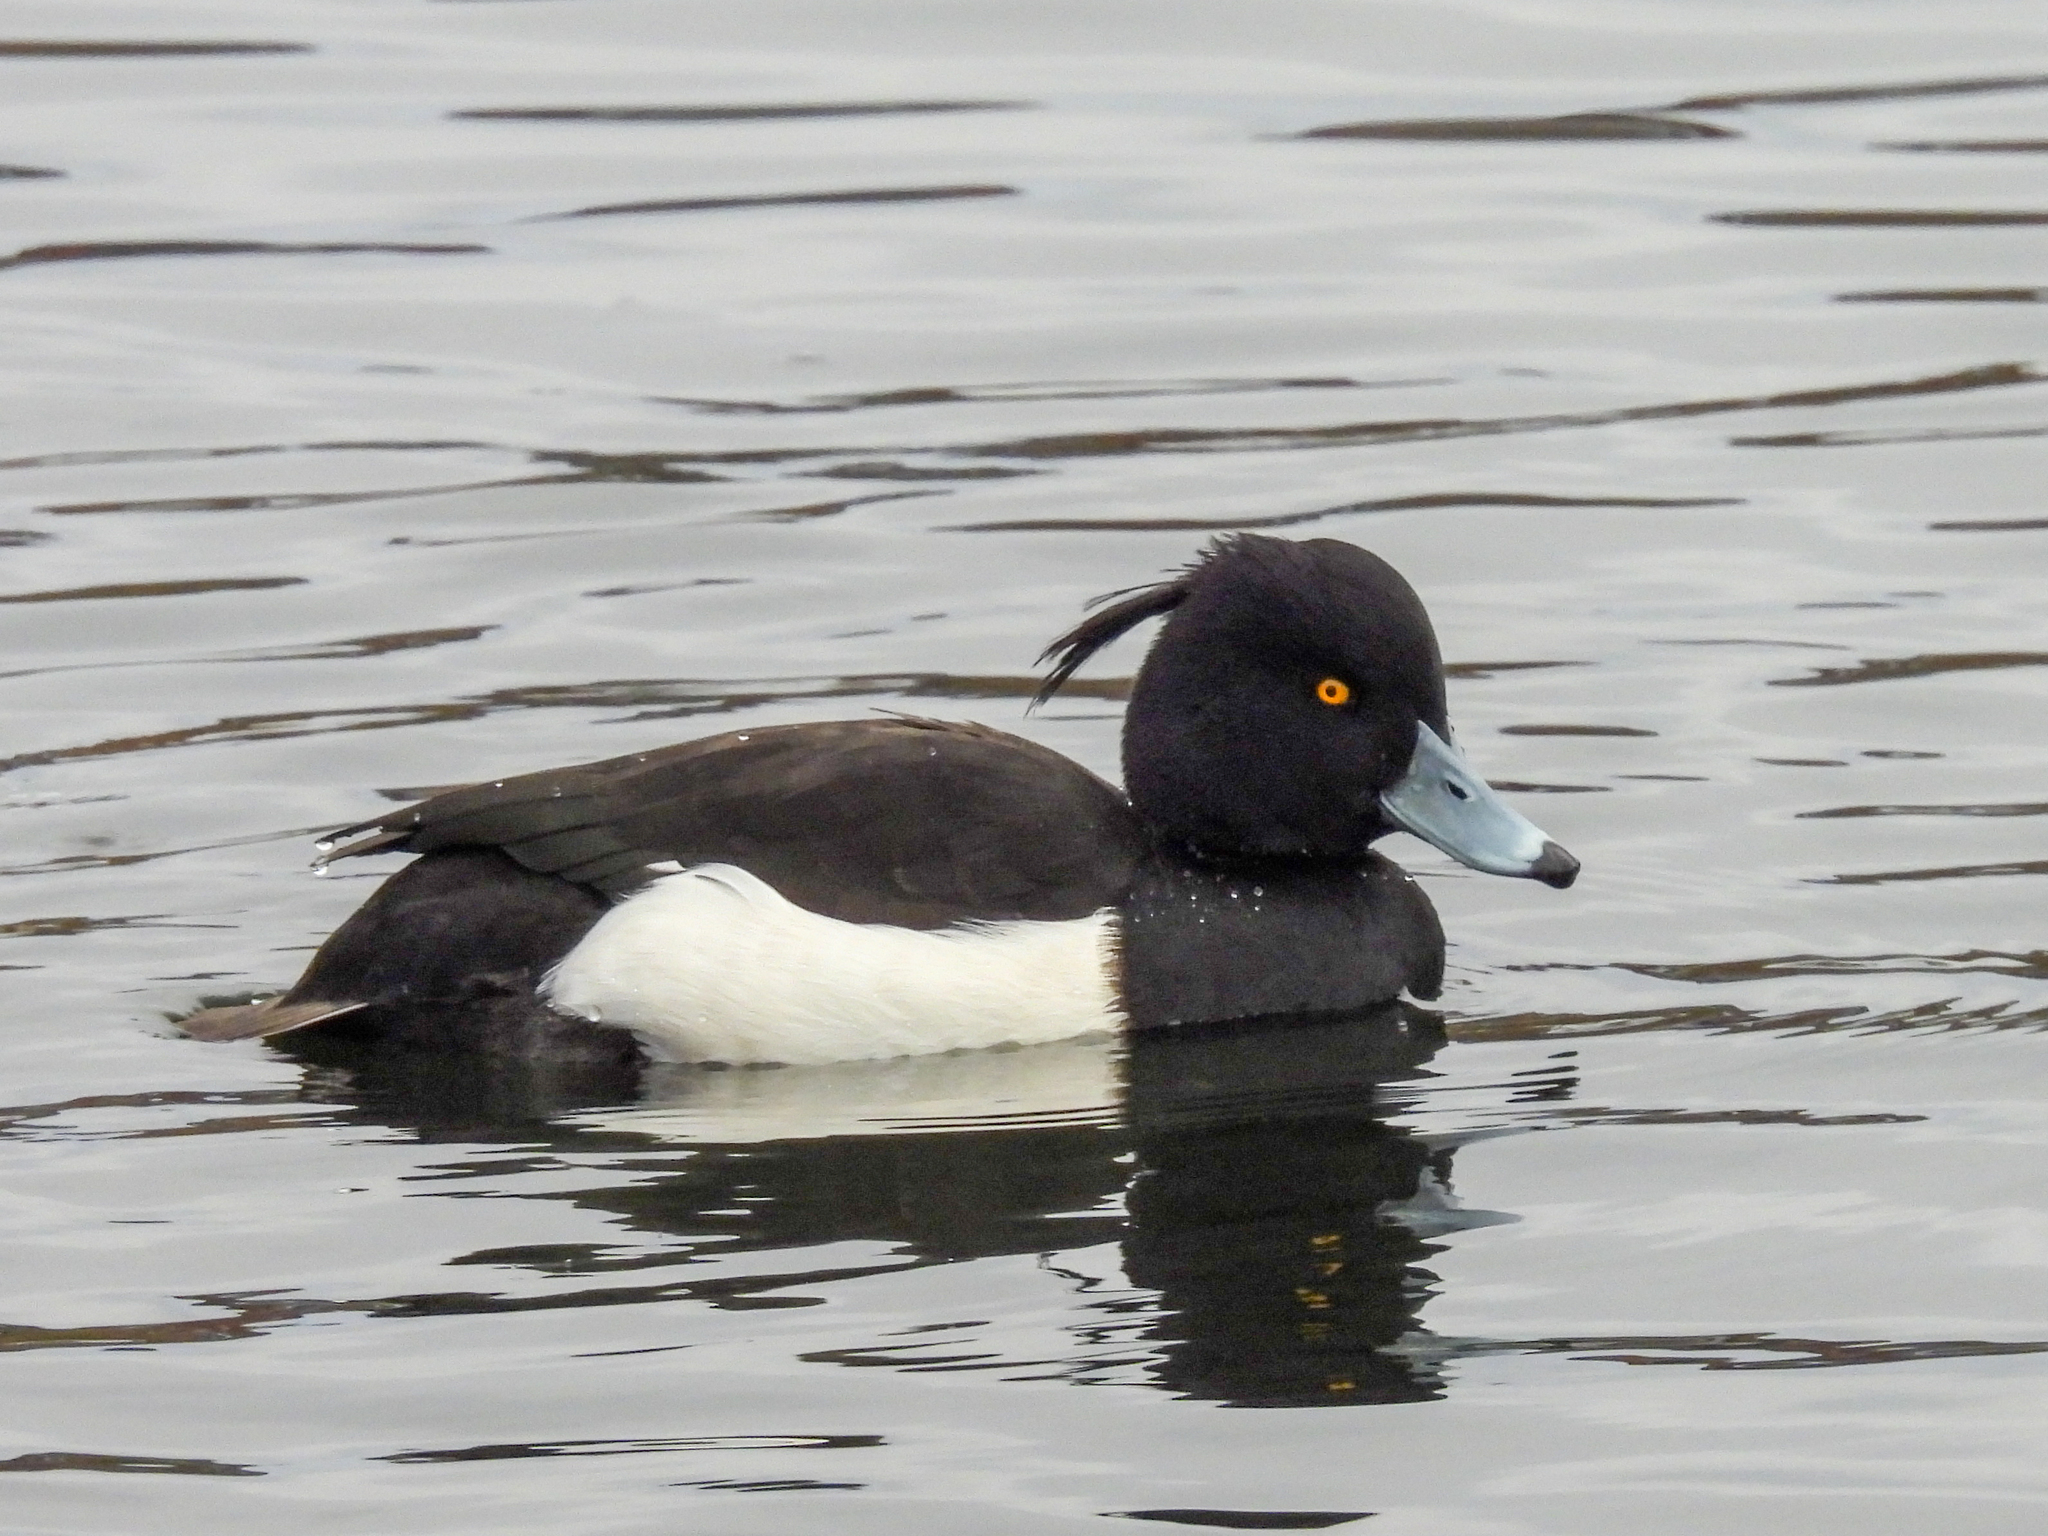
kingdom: Animalia
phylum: Chordata
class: Aves
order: Anseriformes
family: Anatidae
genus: Aythya
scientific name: Aythya fuligula
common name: Tufted duck
